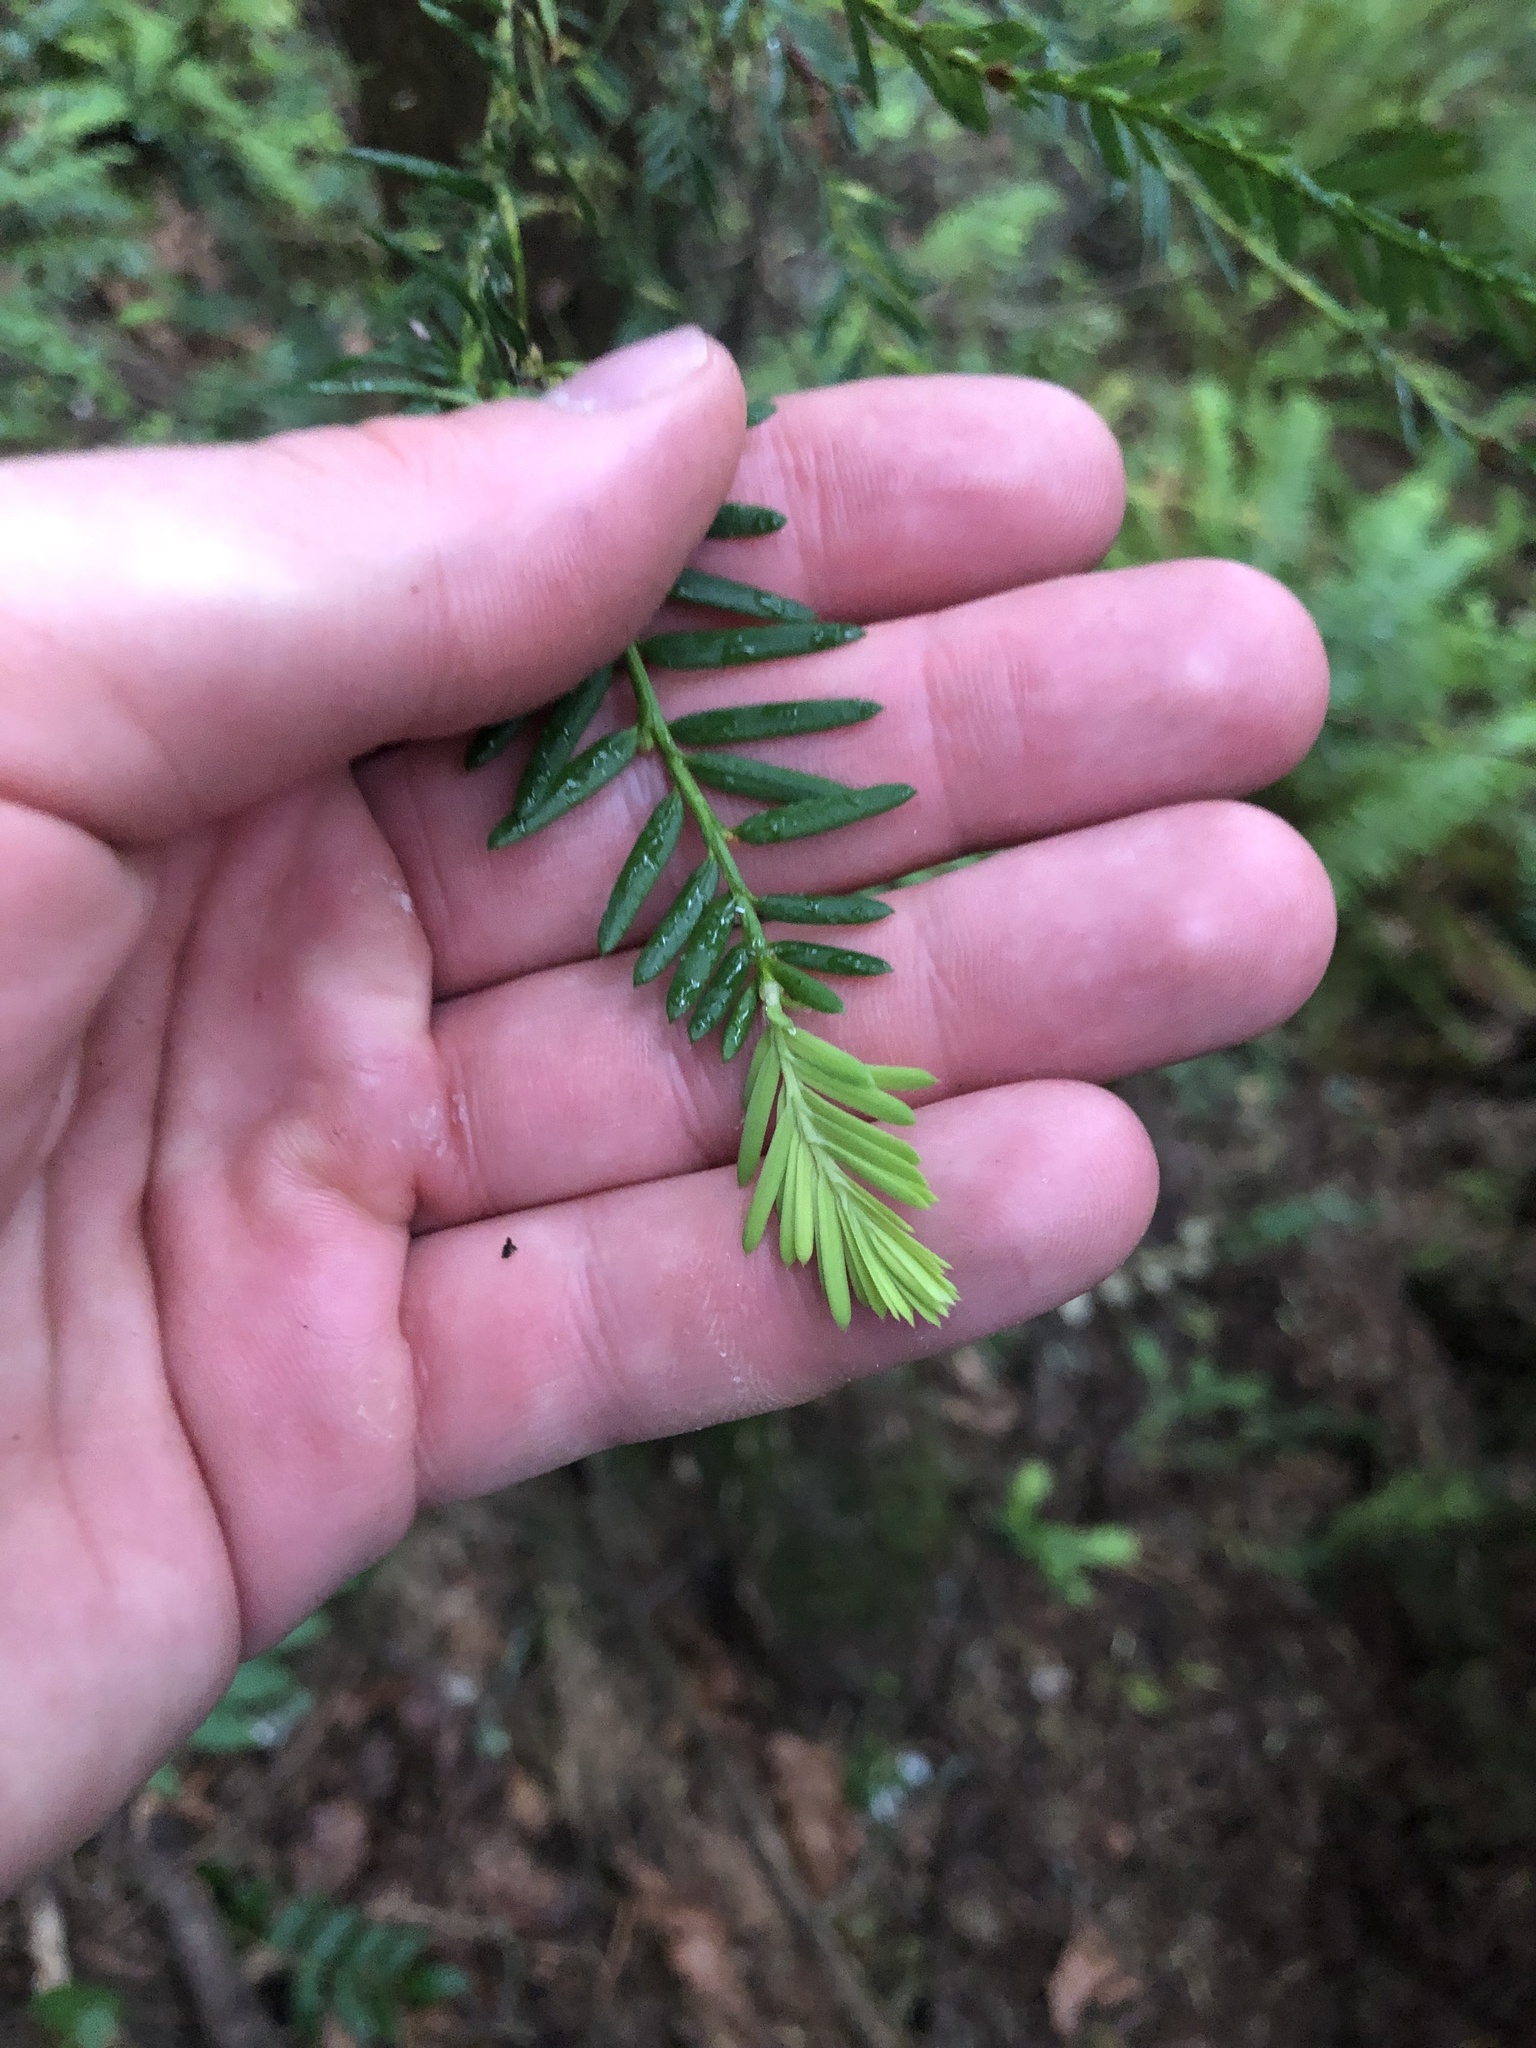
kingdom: Plantae
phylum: Tracheophyta
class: Pinopsida
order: Pinales
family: Taxaceae
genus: Taxus
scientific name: Taxus brevifolia
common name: Pacific yew
